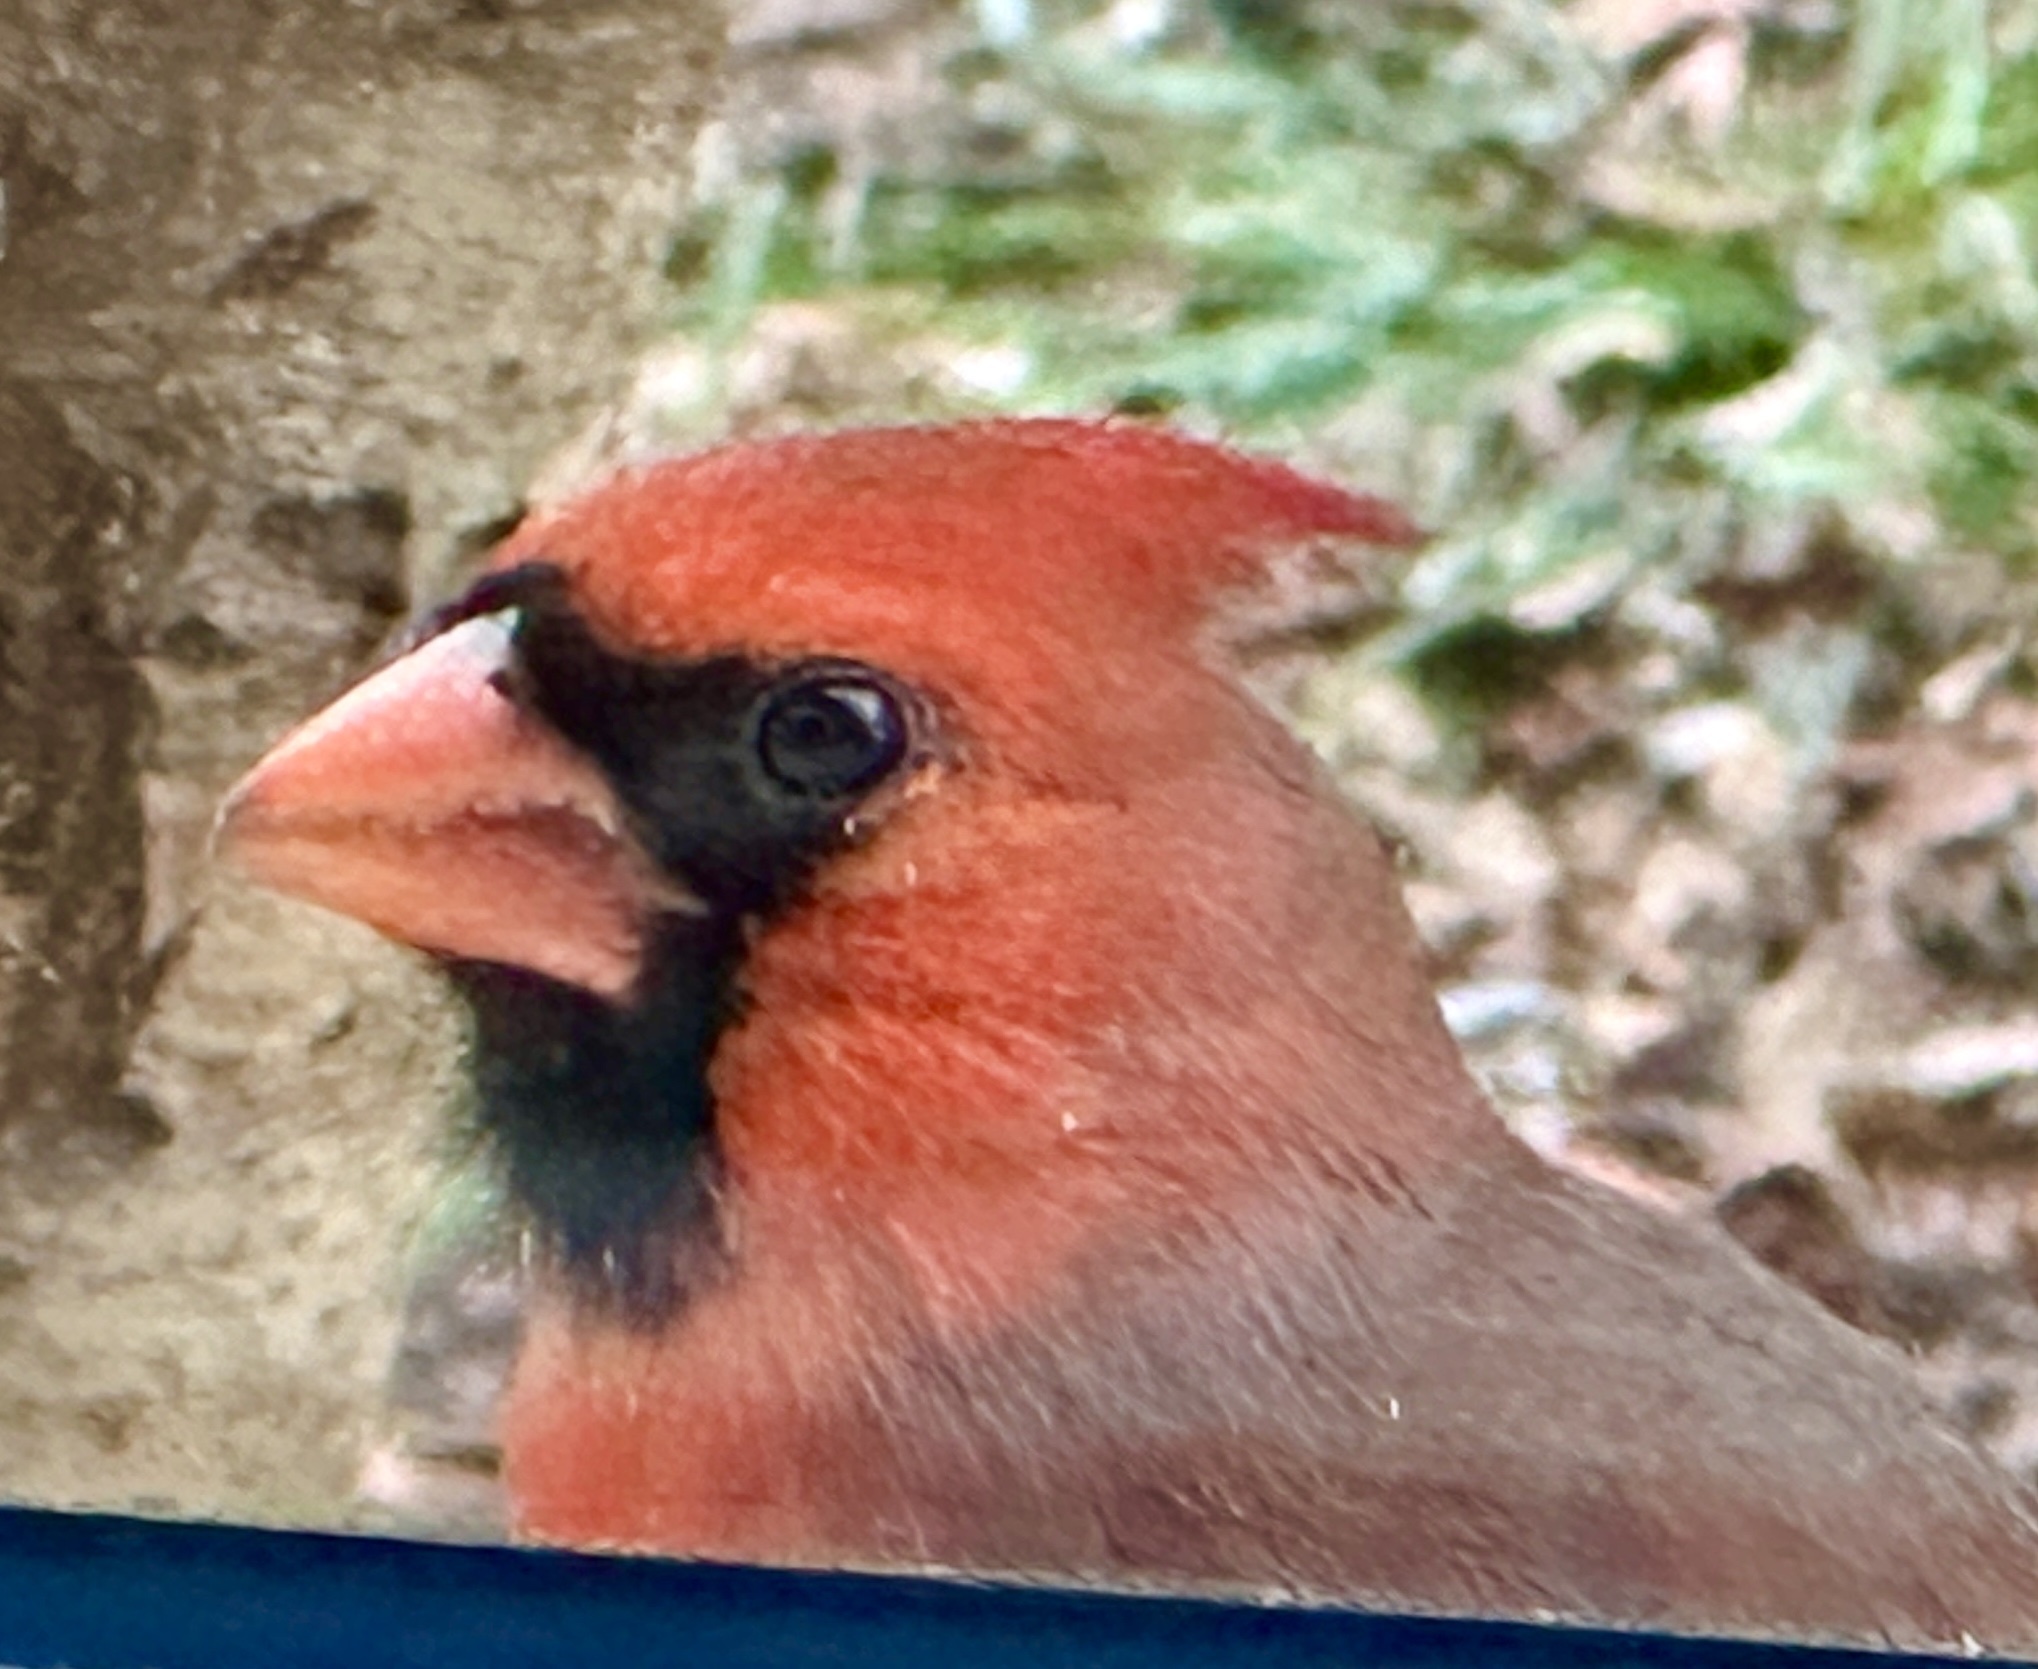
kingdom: Animalia
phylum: Chordata
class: Aves
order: Passeriformes
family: Cardinalidae
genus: Cardinalis
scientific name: Cardinalis cardinalis
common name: Northern cardinal
